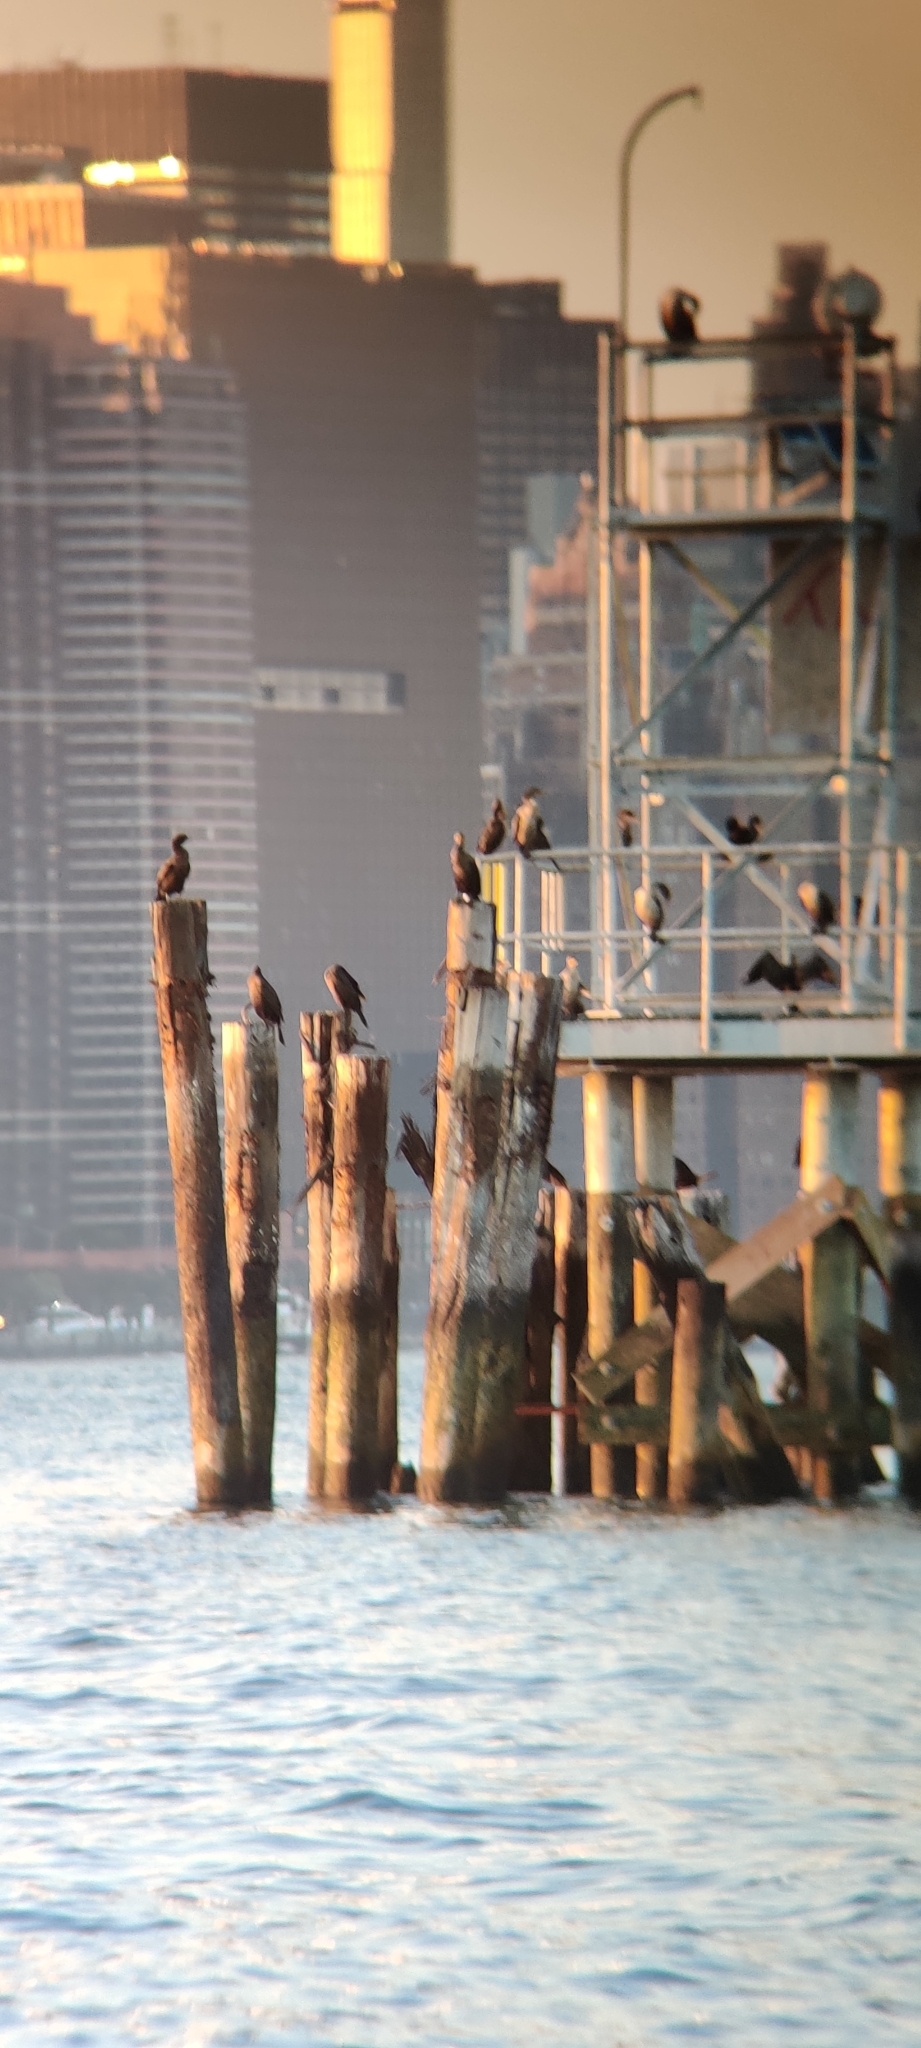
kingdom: Animalia
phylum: Chordata
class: Aves
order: Suliformes
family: Phalacrocoracidae
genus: Phalacrocorax
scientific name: Phalacrocorax auritus
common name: Double-crested cormorant
